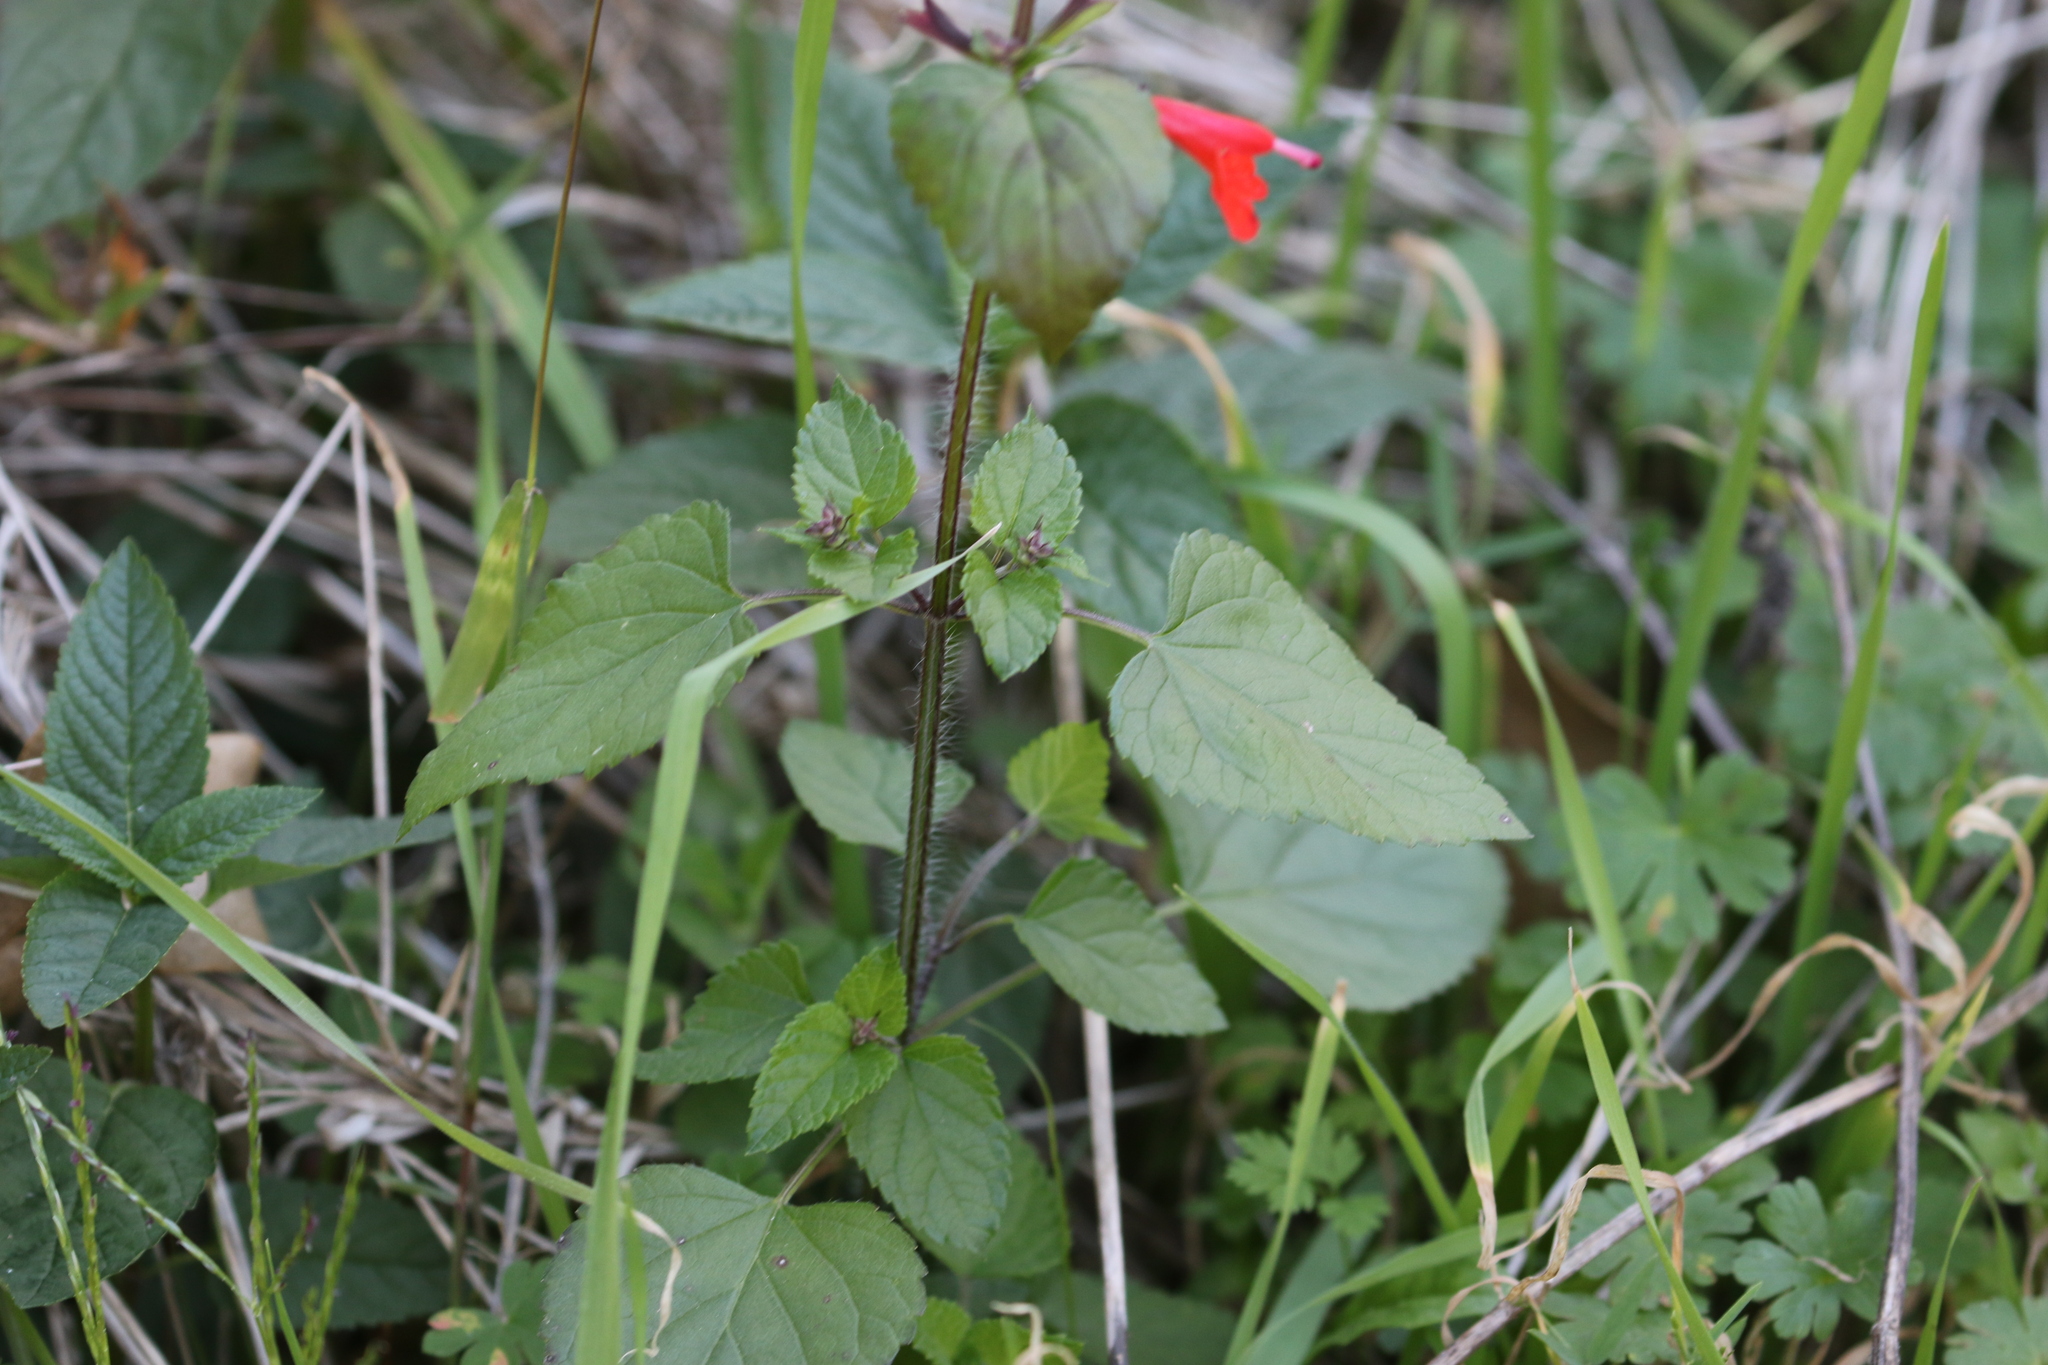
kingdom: Plantae
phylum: Tracheophyta
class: Magnoliopsida
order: Lamiales
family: Lamiaceae
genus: Salvia
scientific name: Salvia coccinea
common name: Blood sage
